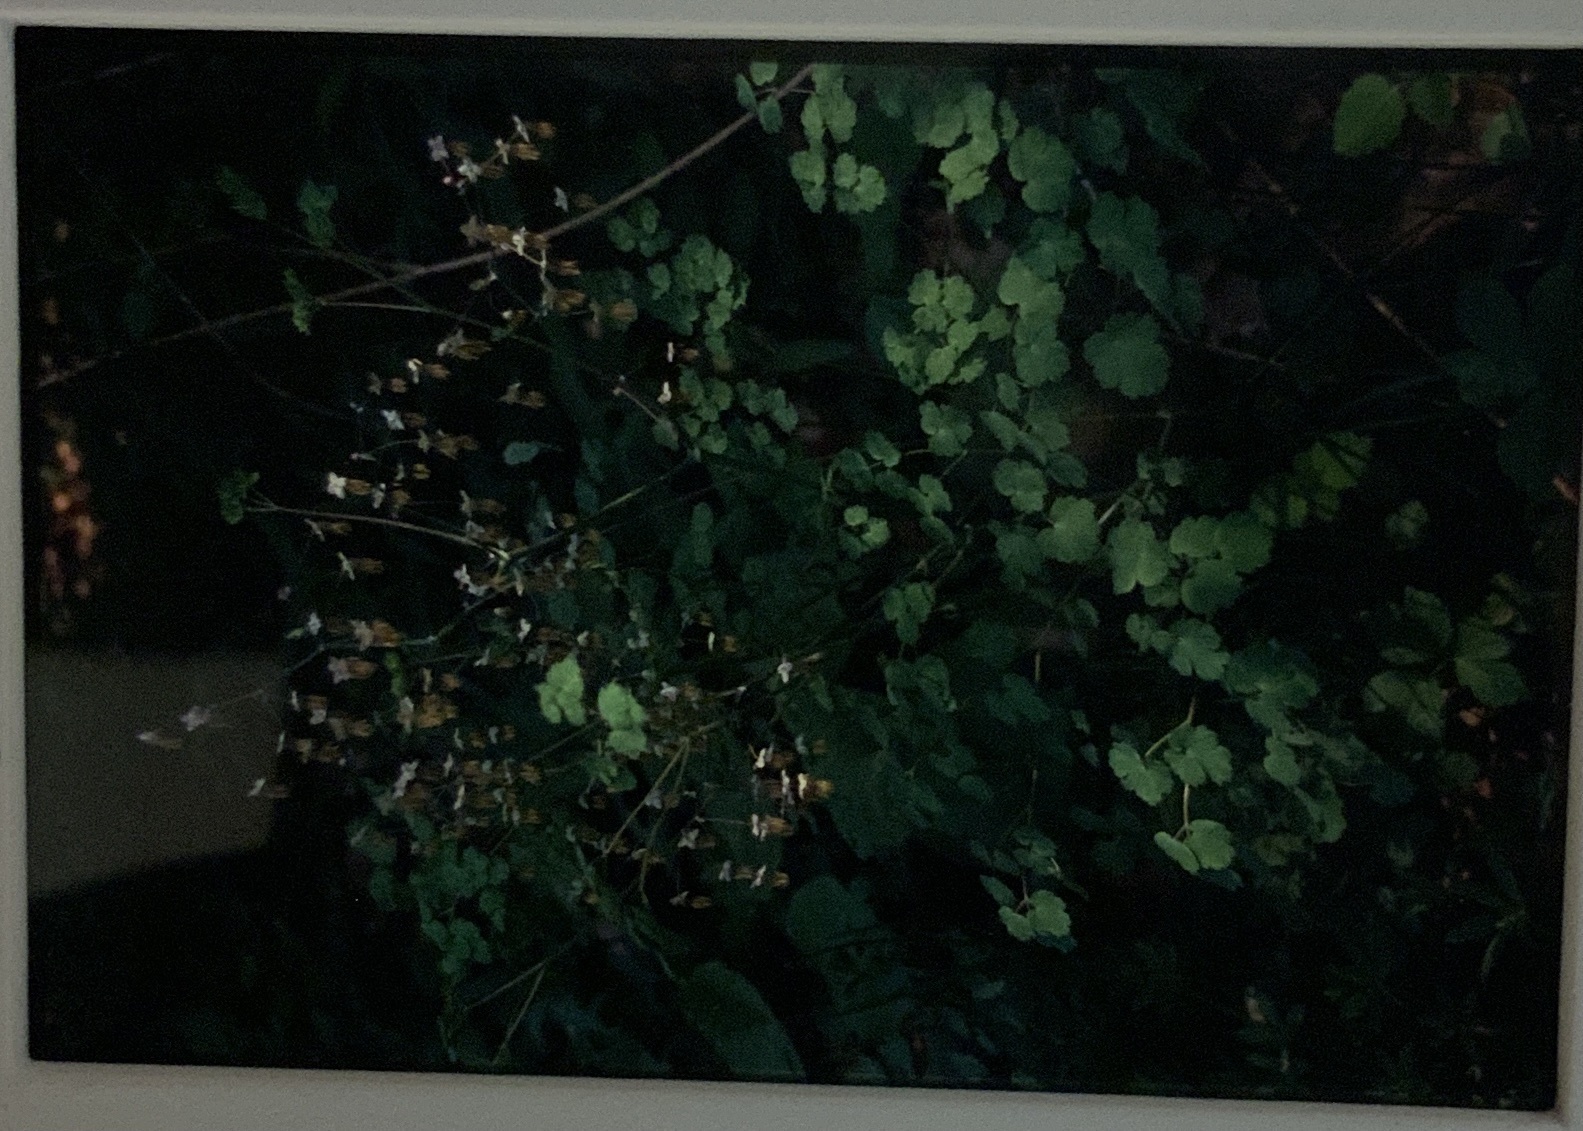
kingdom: Plantae
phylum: Tracheophyta
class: Magnoliopsida
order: Ranunculales
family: Ranunculaceae
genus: Thalictrum
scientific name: Thalictrum dioicum
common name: Early meadow-rue
